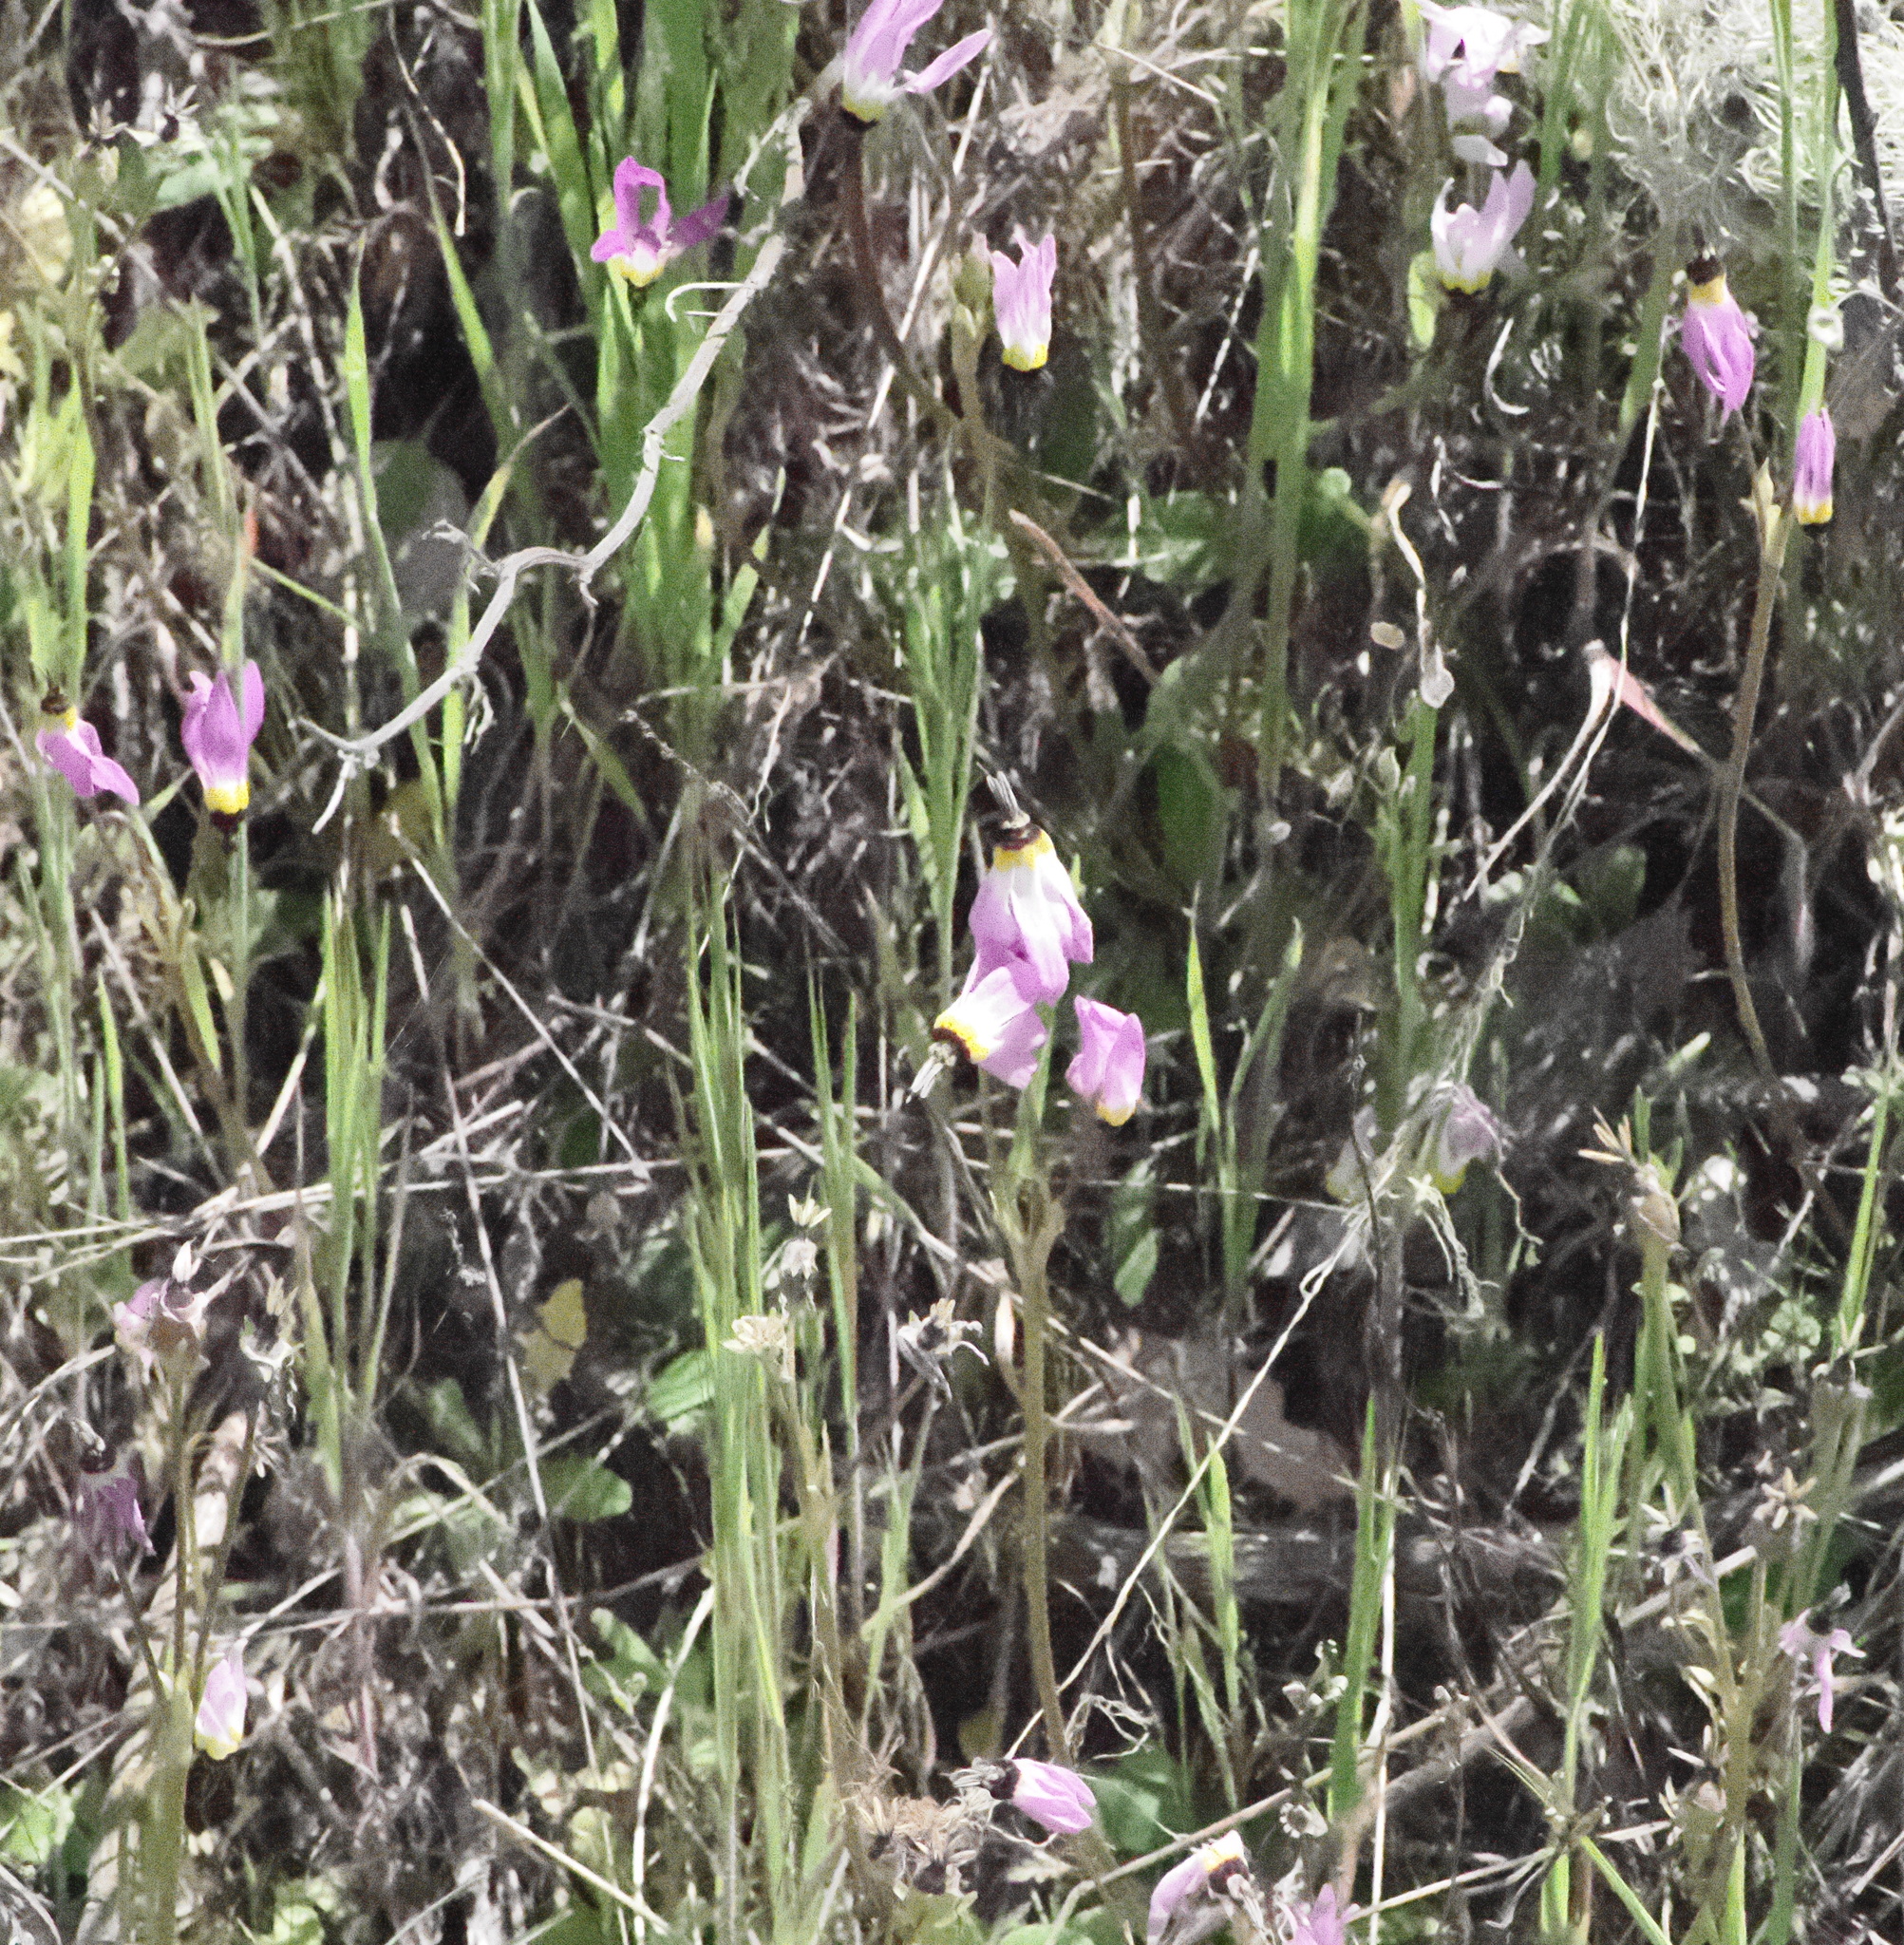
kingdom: Plantae
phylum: Tracheophyta
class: Magnoliopsida
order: Ericales
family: Primulaceae
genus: Dodecatheon
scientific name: Dodecatheon clevelandii
